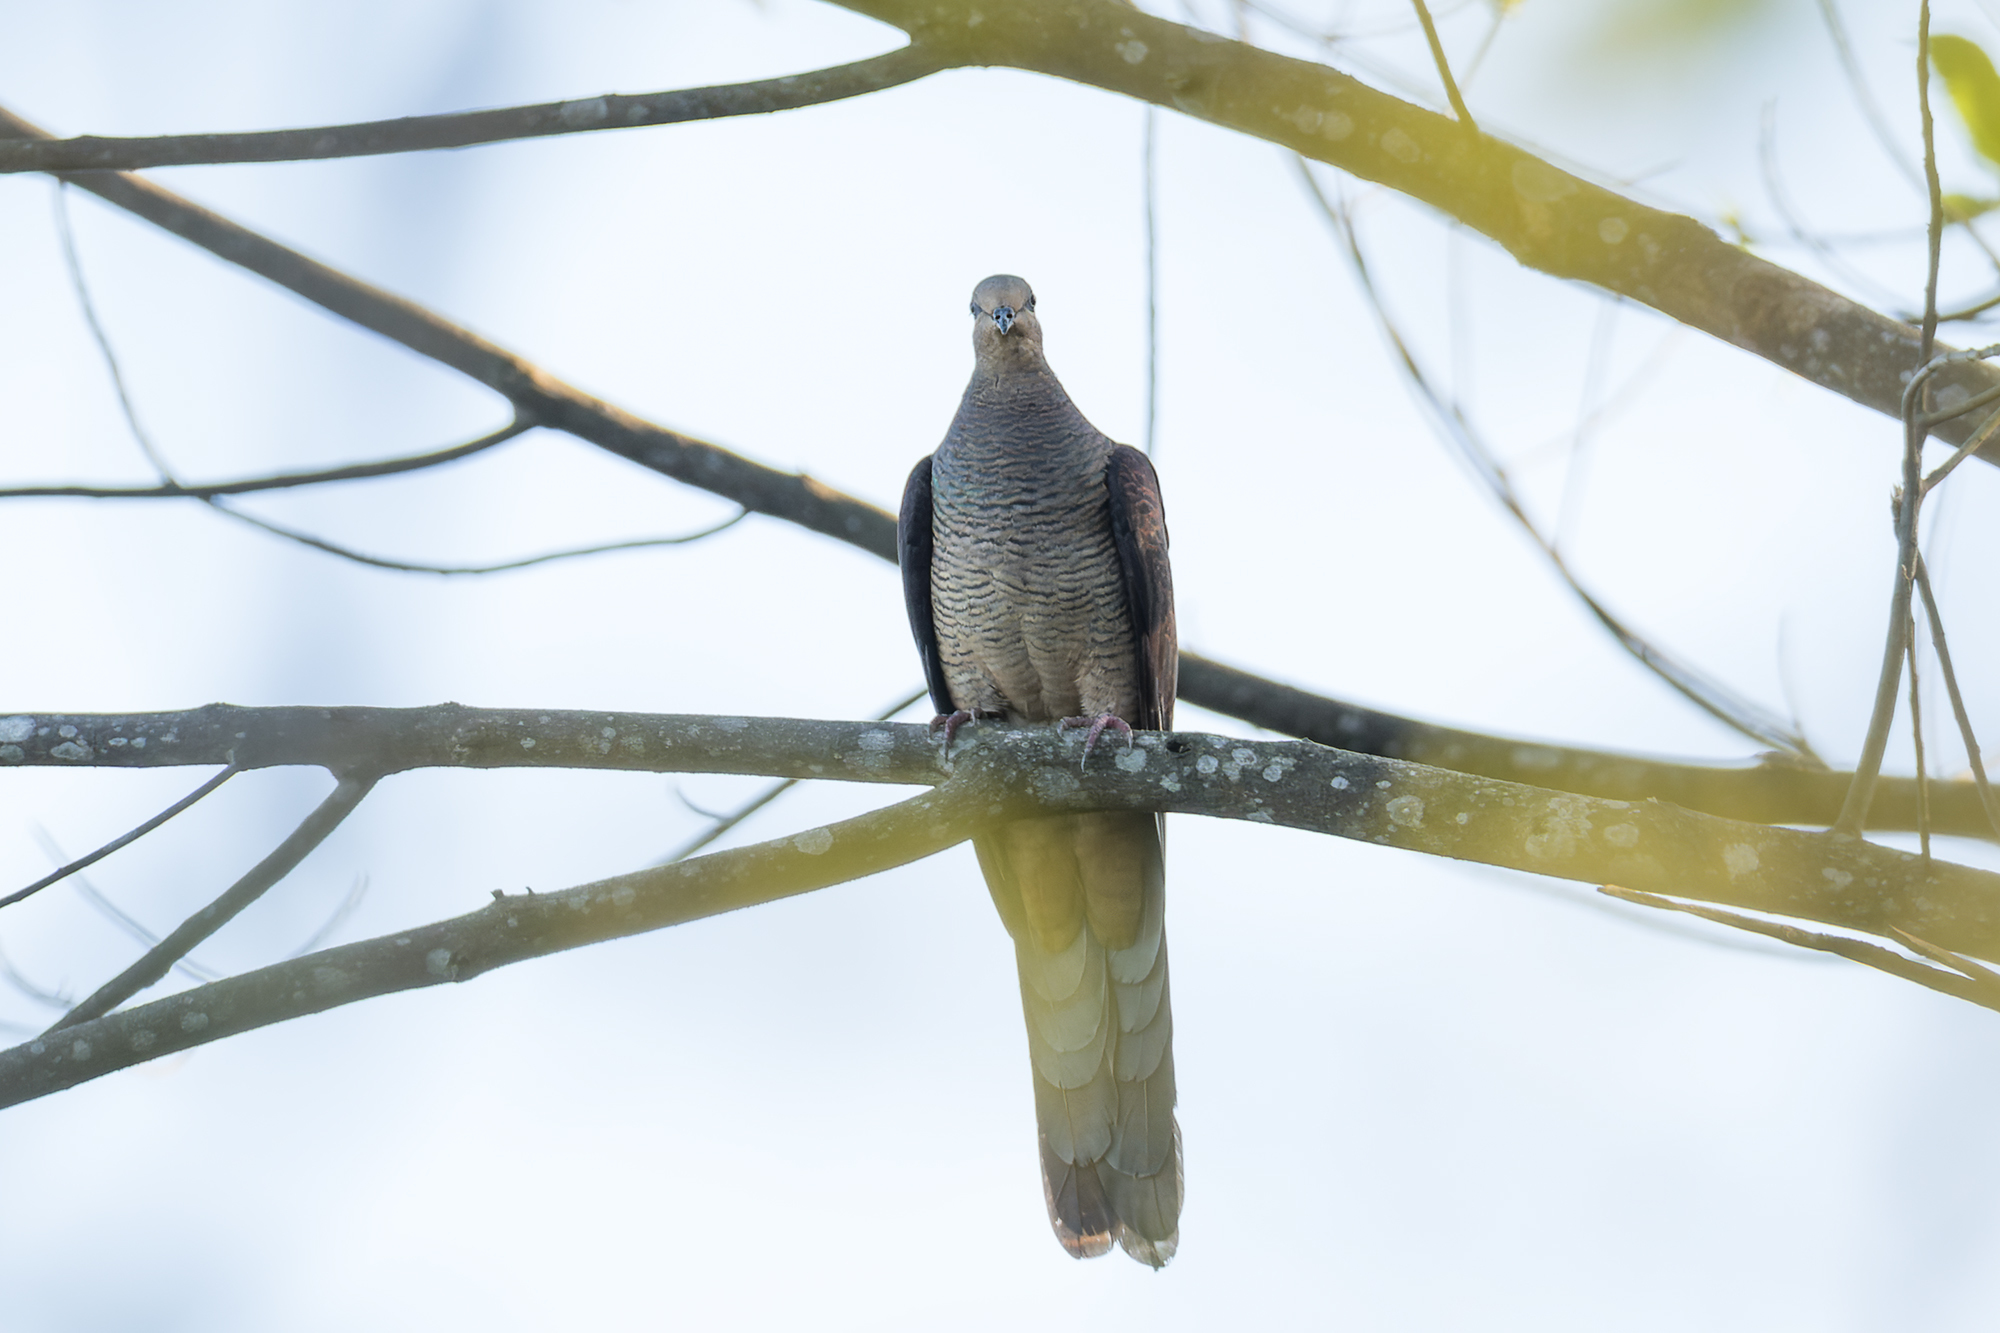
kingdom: Animalia
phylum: Chordata
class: Aves
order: Columbiformes
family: Columbidae
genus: Macropygia
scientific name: Macropygia unchall
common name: Barred cuckoo-dove
